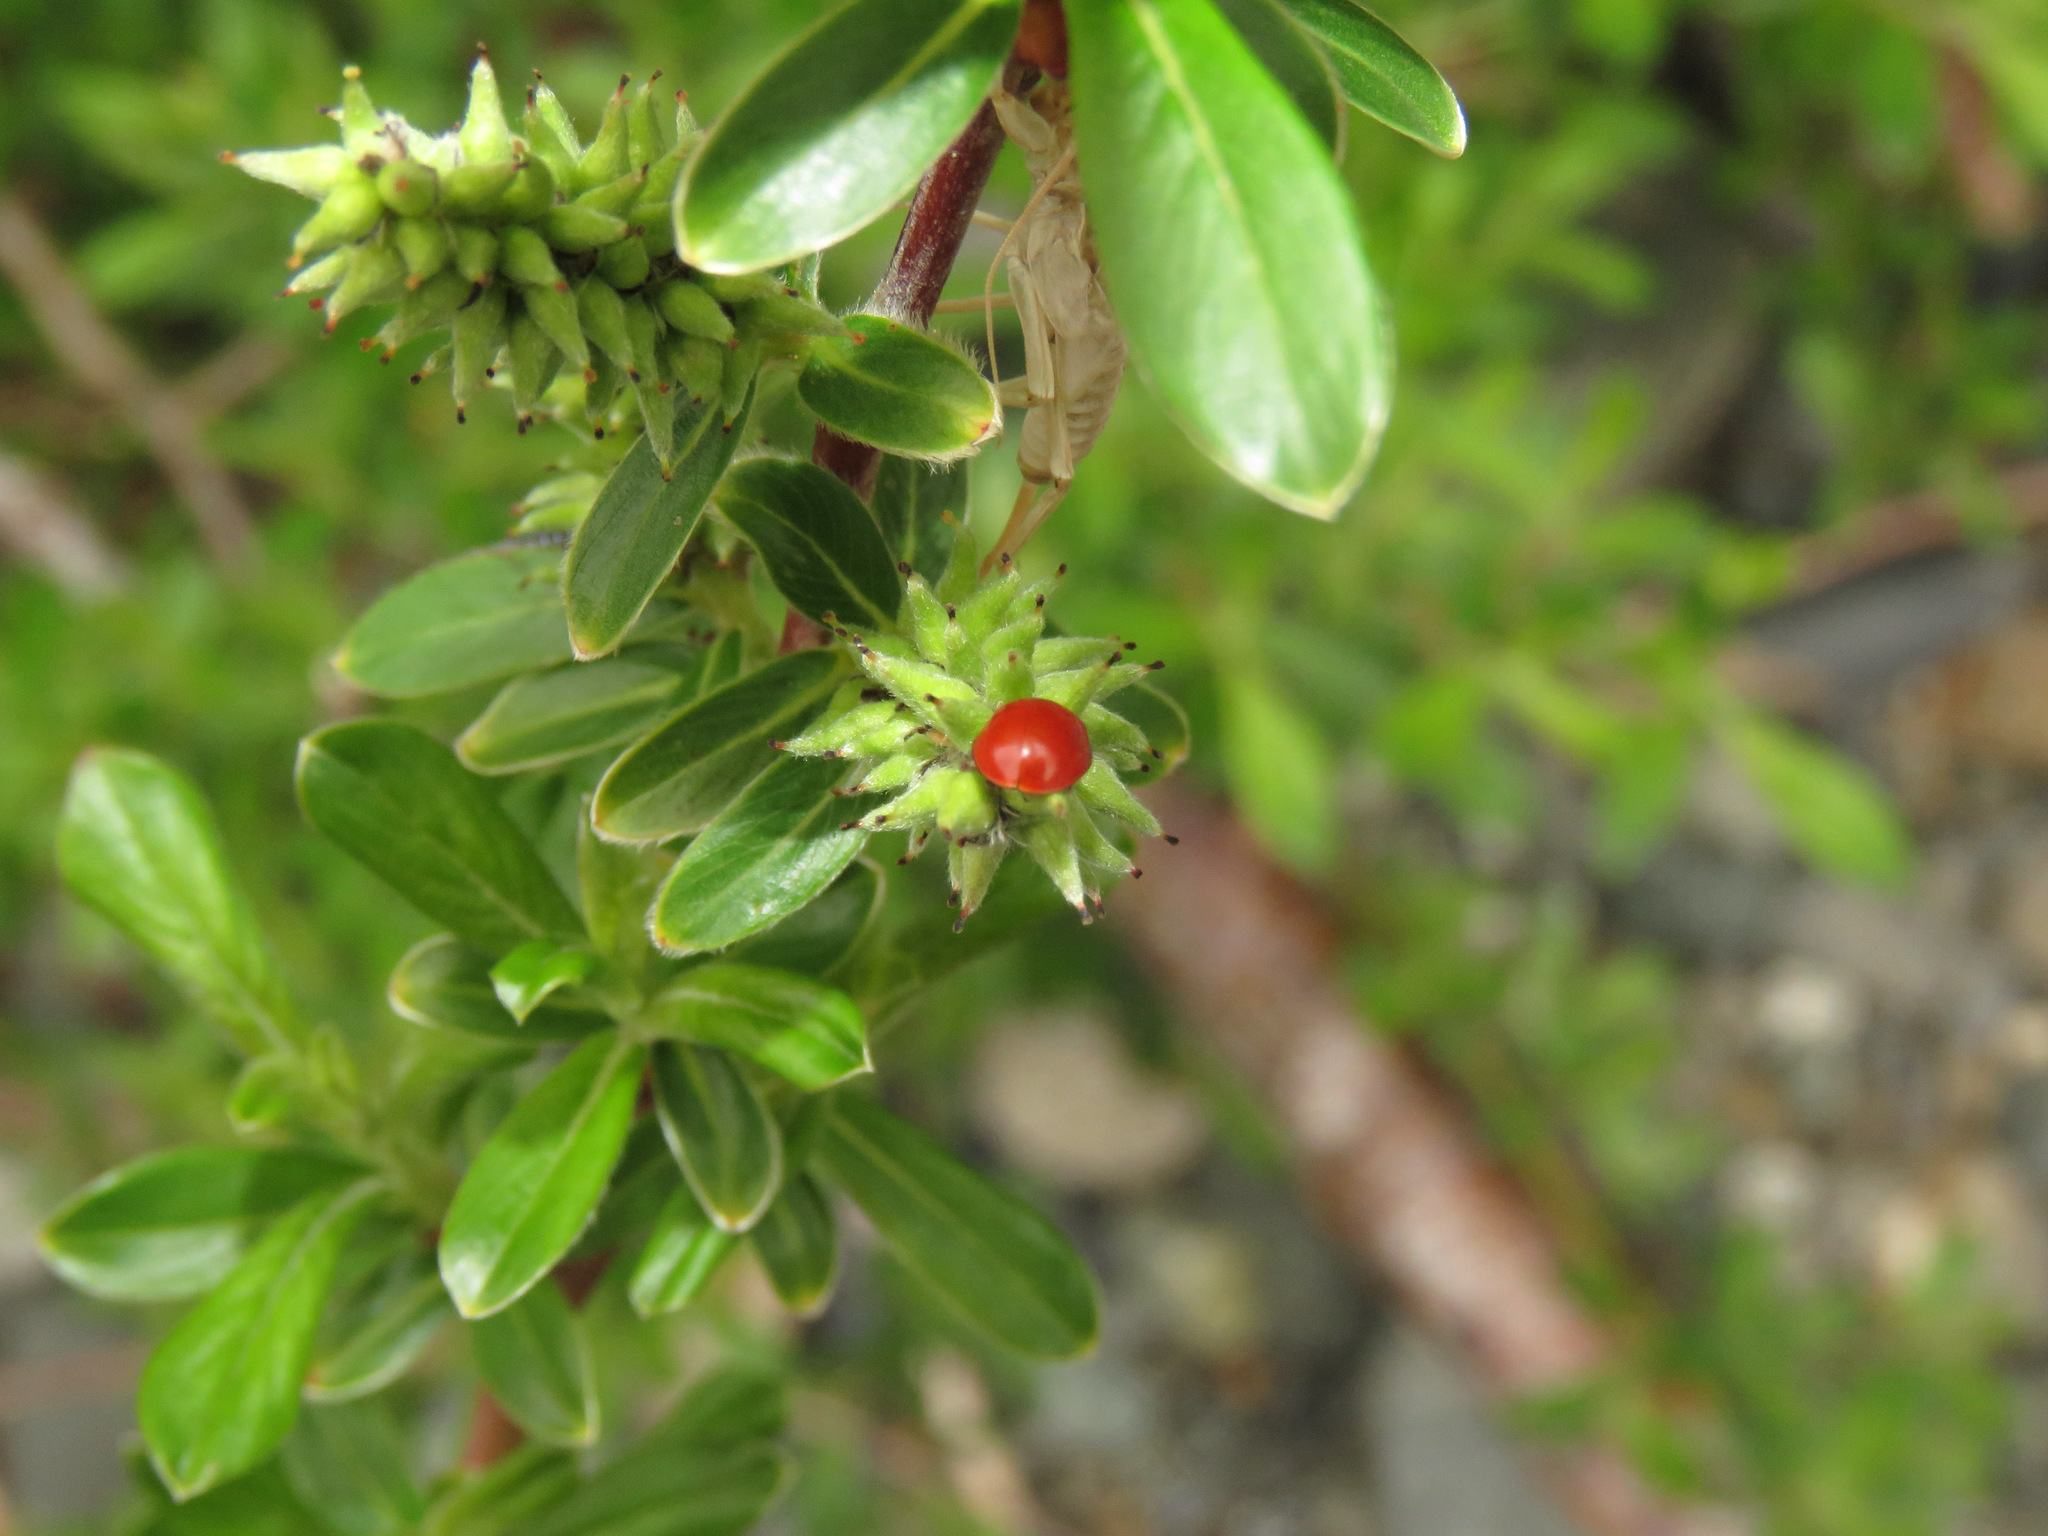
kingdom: Animalia
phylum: Arthropoda
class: Insecta
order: Coleoptera
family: Coccinellidae
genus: Cycloneda
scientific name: Cycloneda polita
